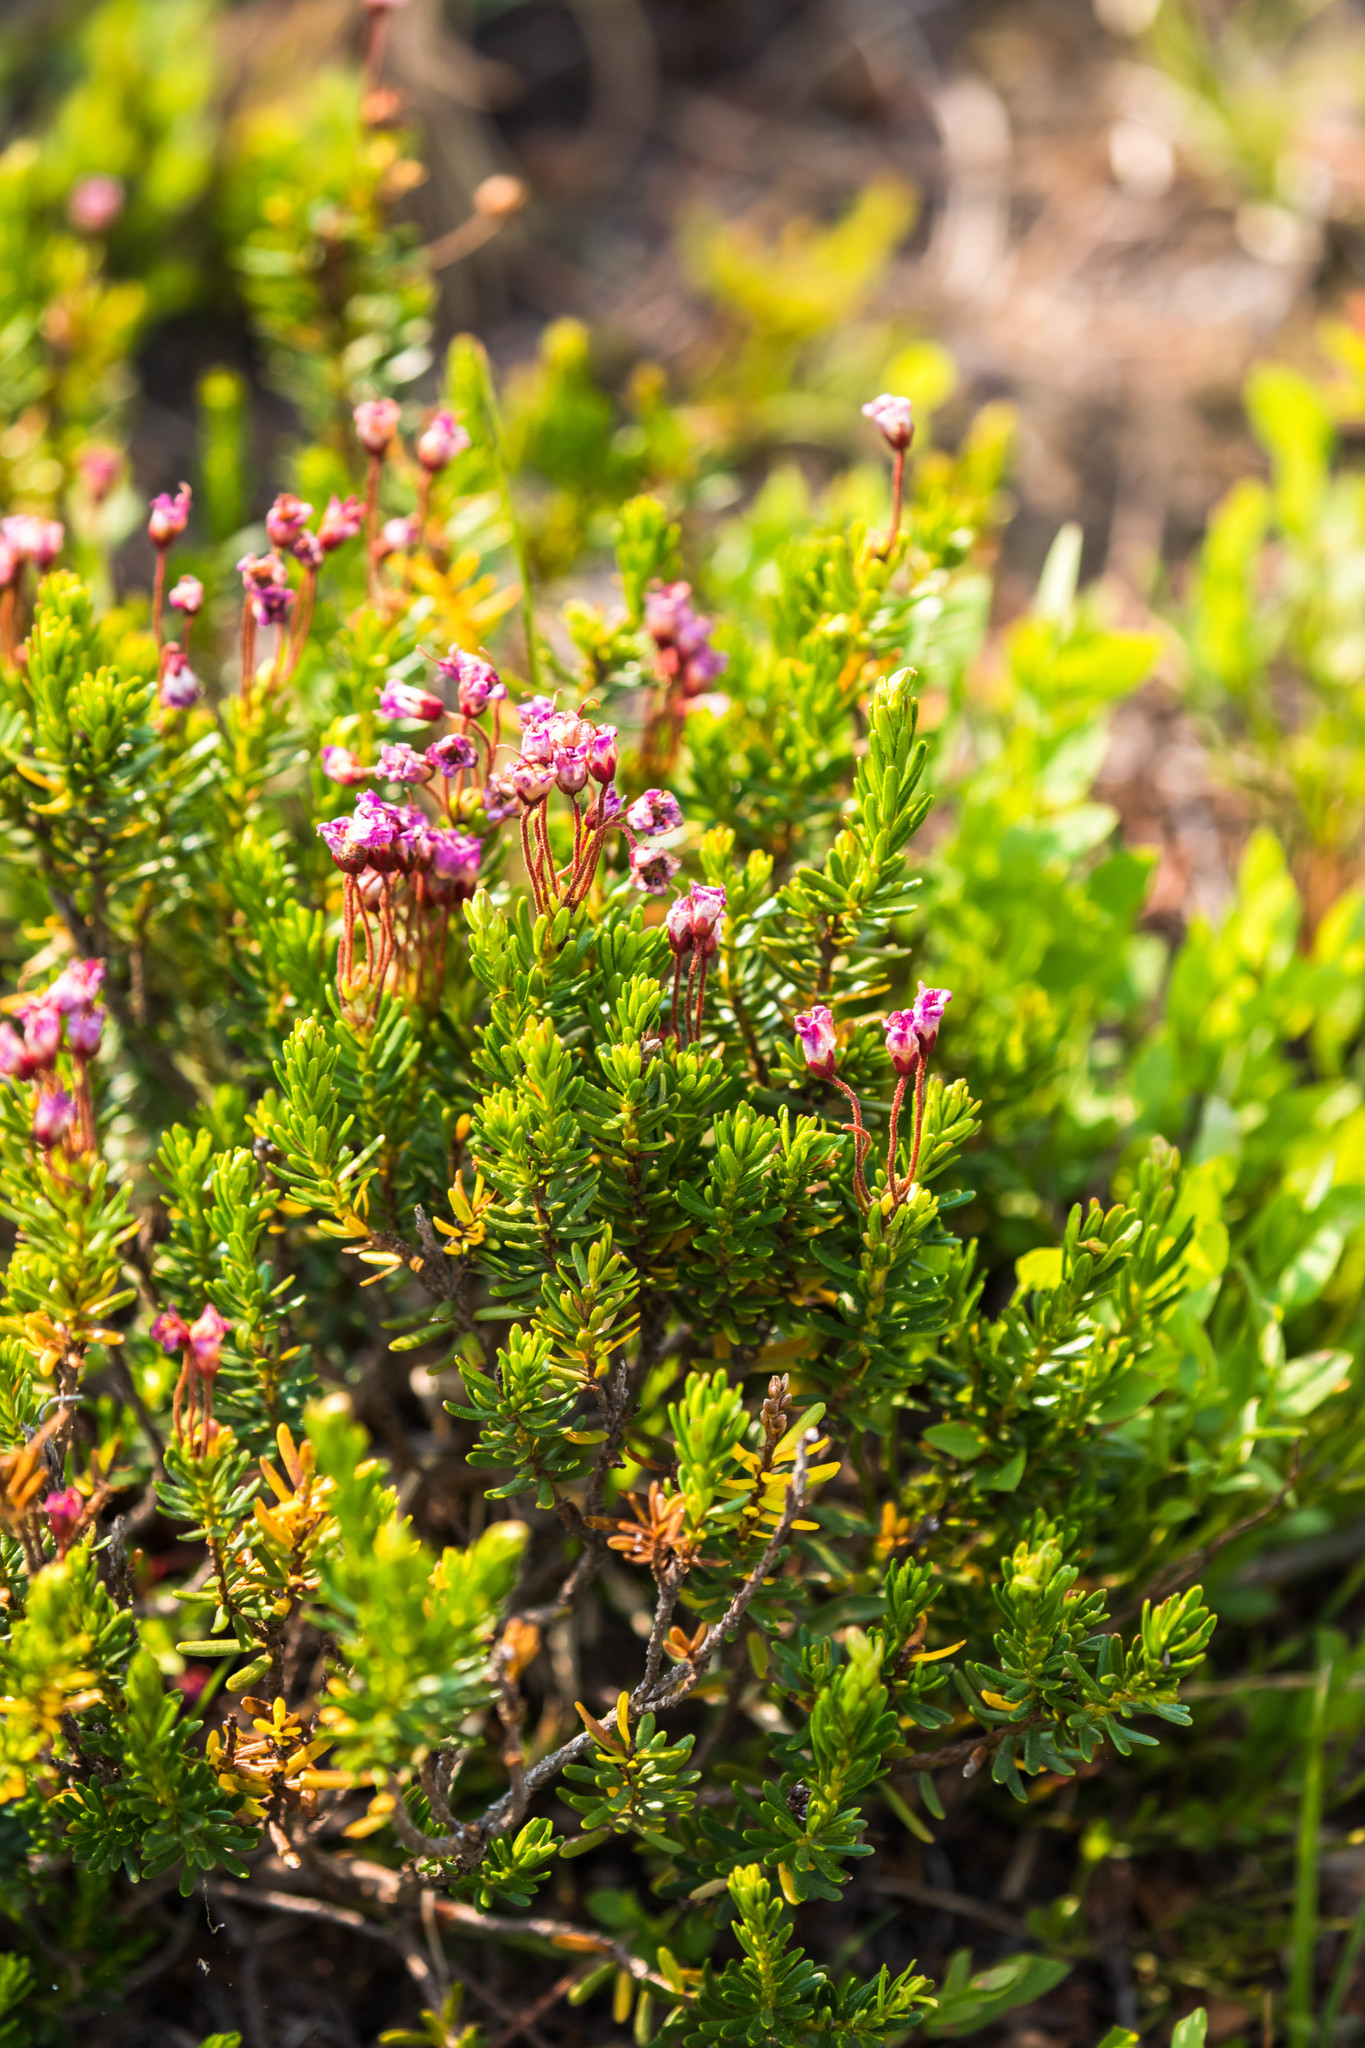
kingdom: Plantae
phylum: Tracheophyta
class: Magnoliopsida
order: Ericales
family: Ericaceae
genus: Phyllodoce
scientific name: Phyllodoce empetriformis
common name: Pink mountain heather
